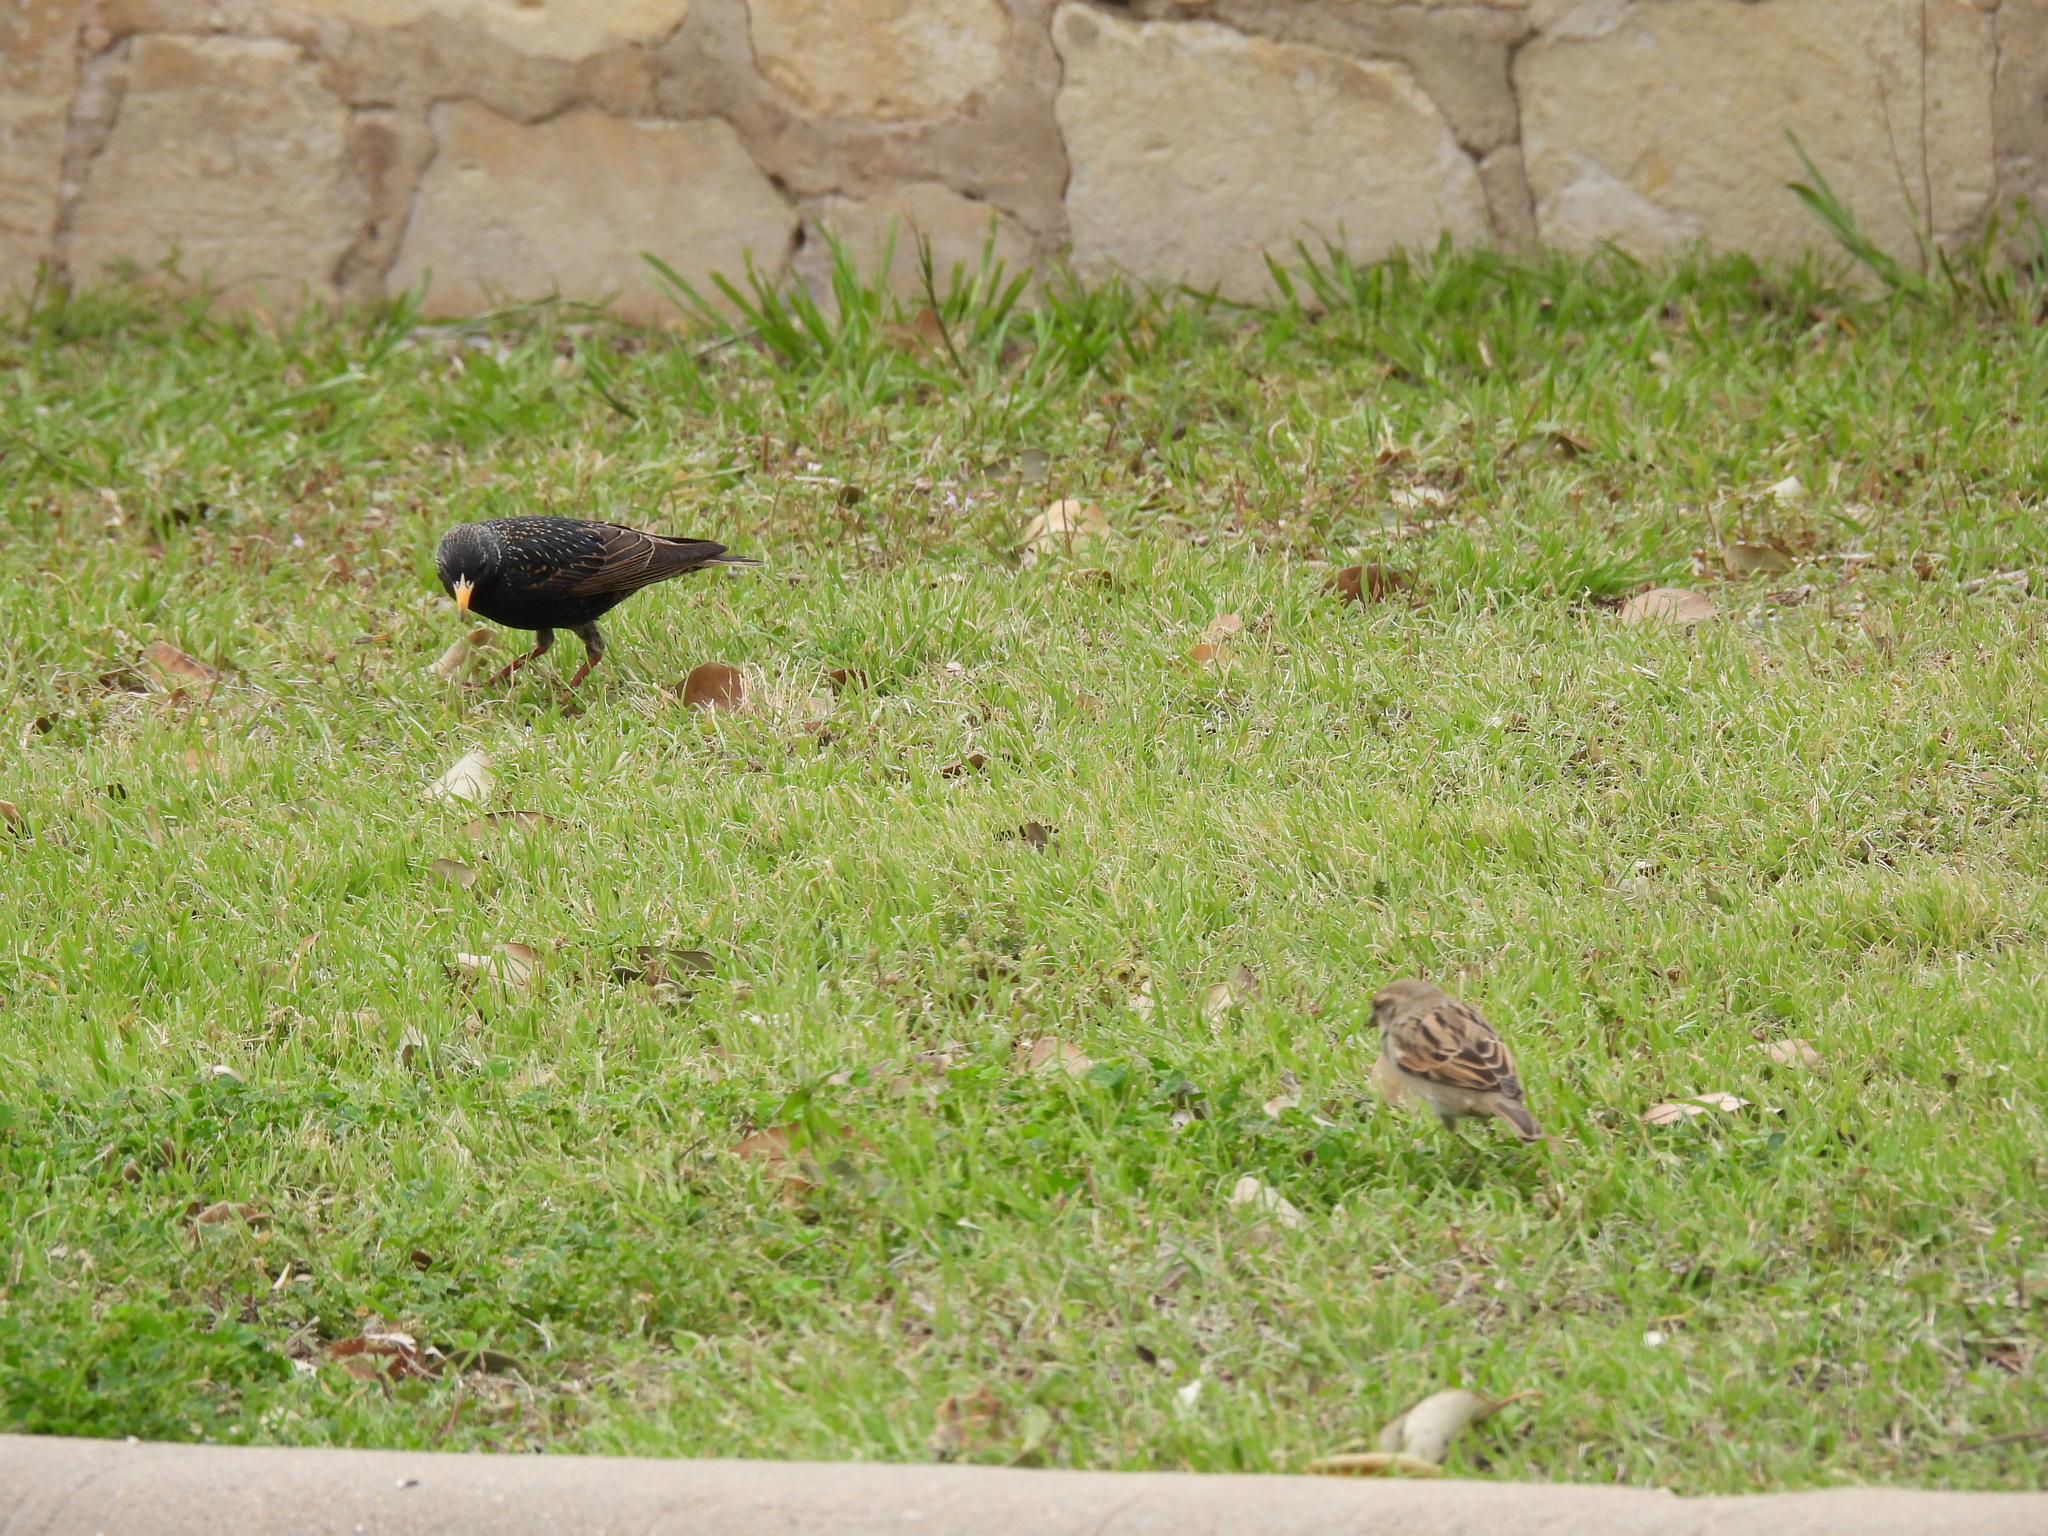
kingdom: Animalia
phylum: Chordata
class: Aves
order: Passeriformes
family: Sturnidae
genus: Sturnus
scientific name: Sturnus vulgaris
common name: Common starling
